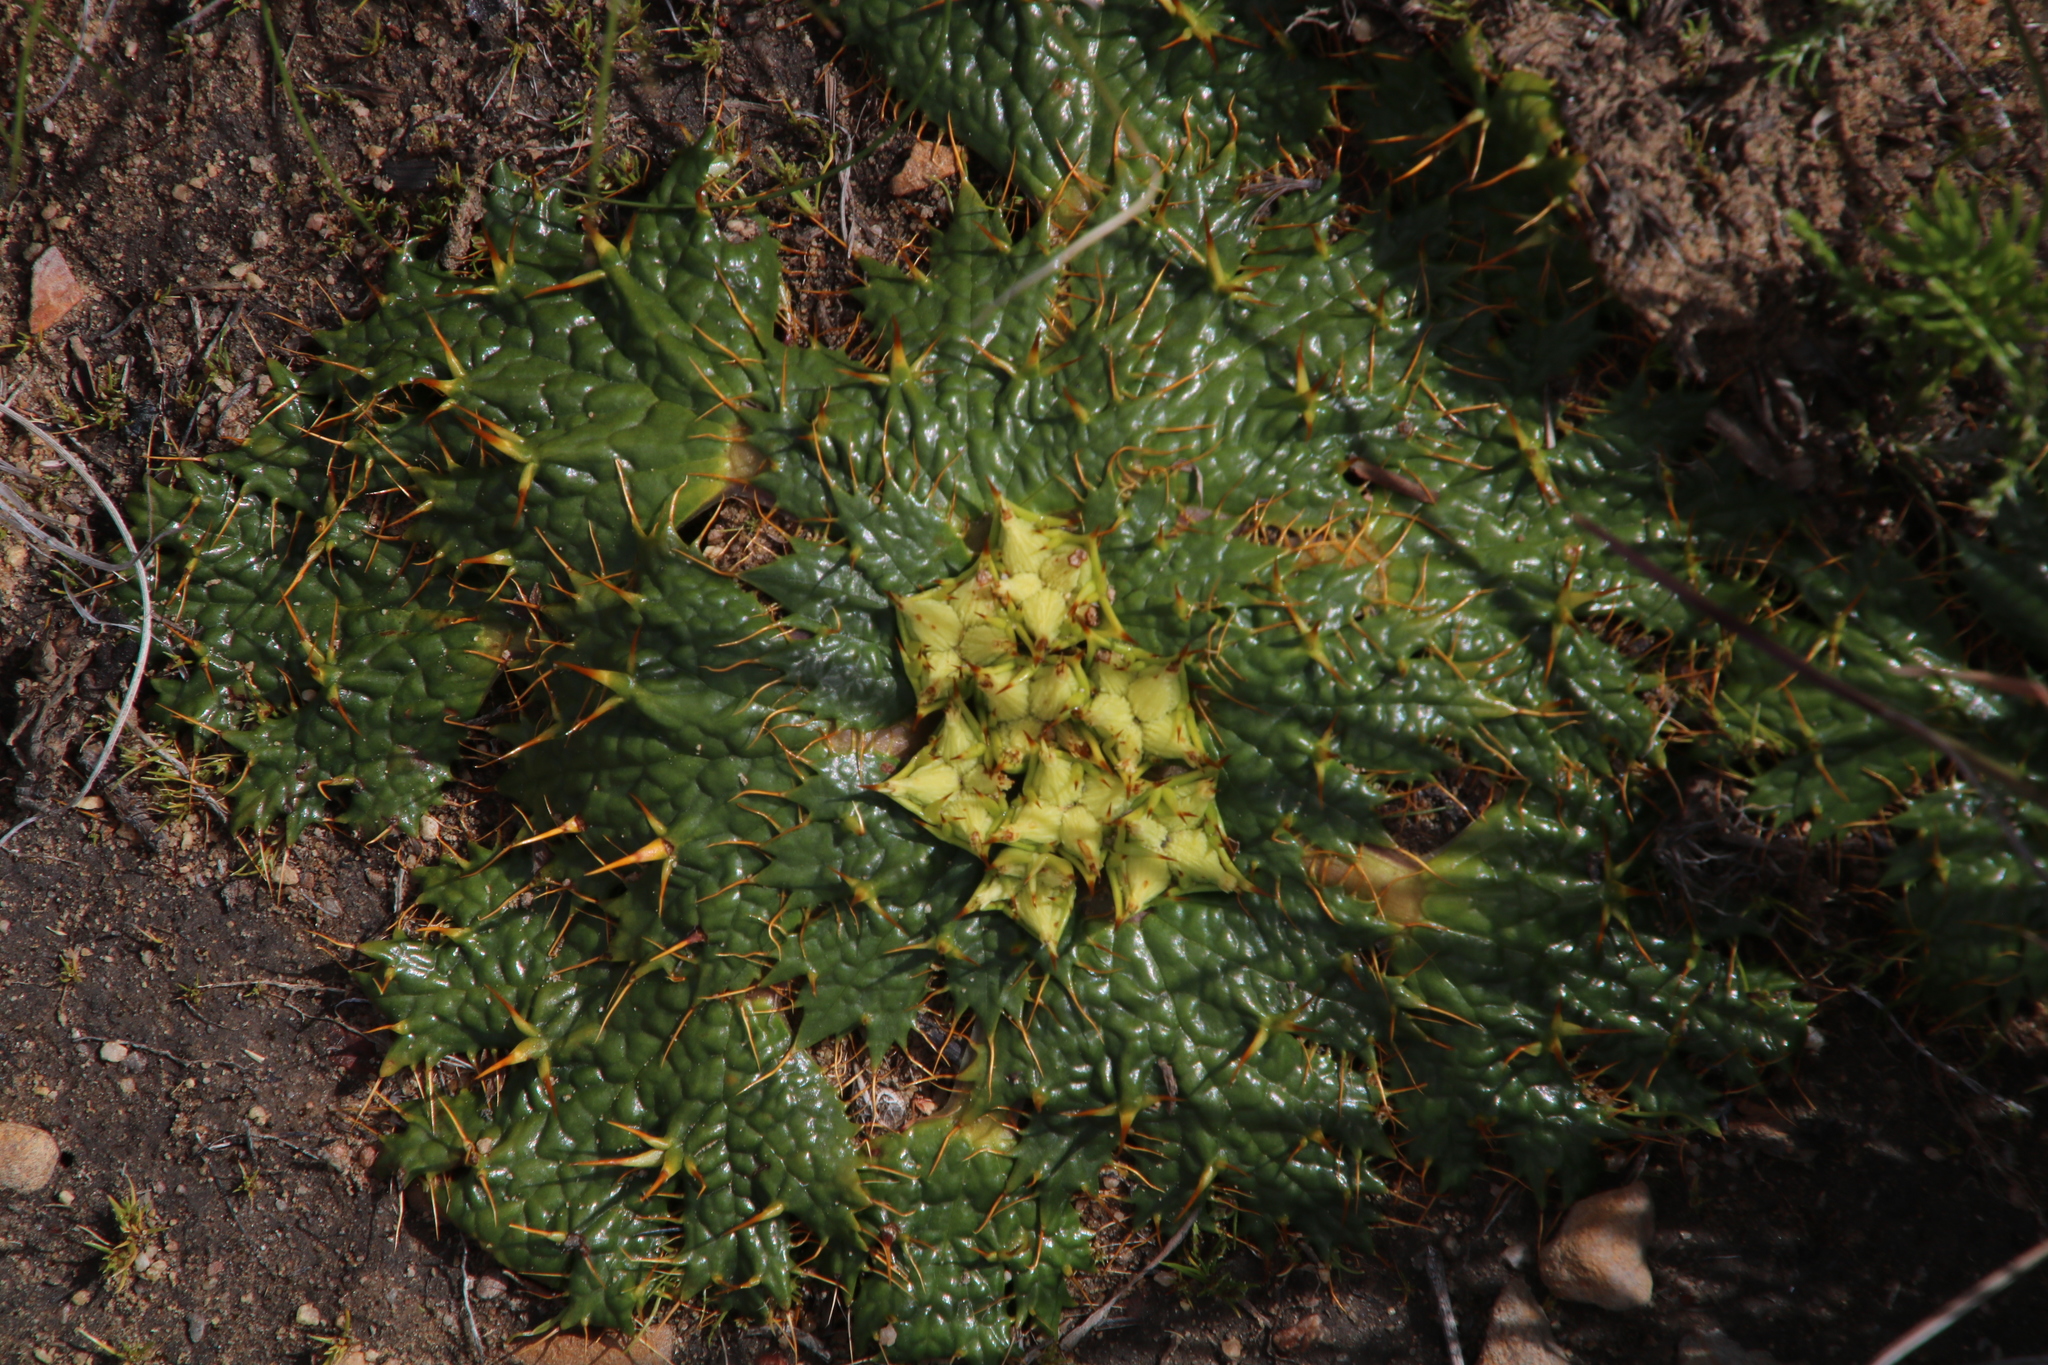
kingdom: Plantae
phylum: Tracheophyta
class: Magnoliopsida
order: Apiales
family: Apiaceae
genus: Arctopus
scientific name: Arctopus echinatus
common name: Platdoring
